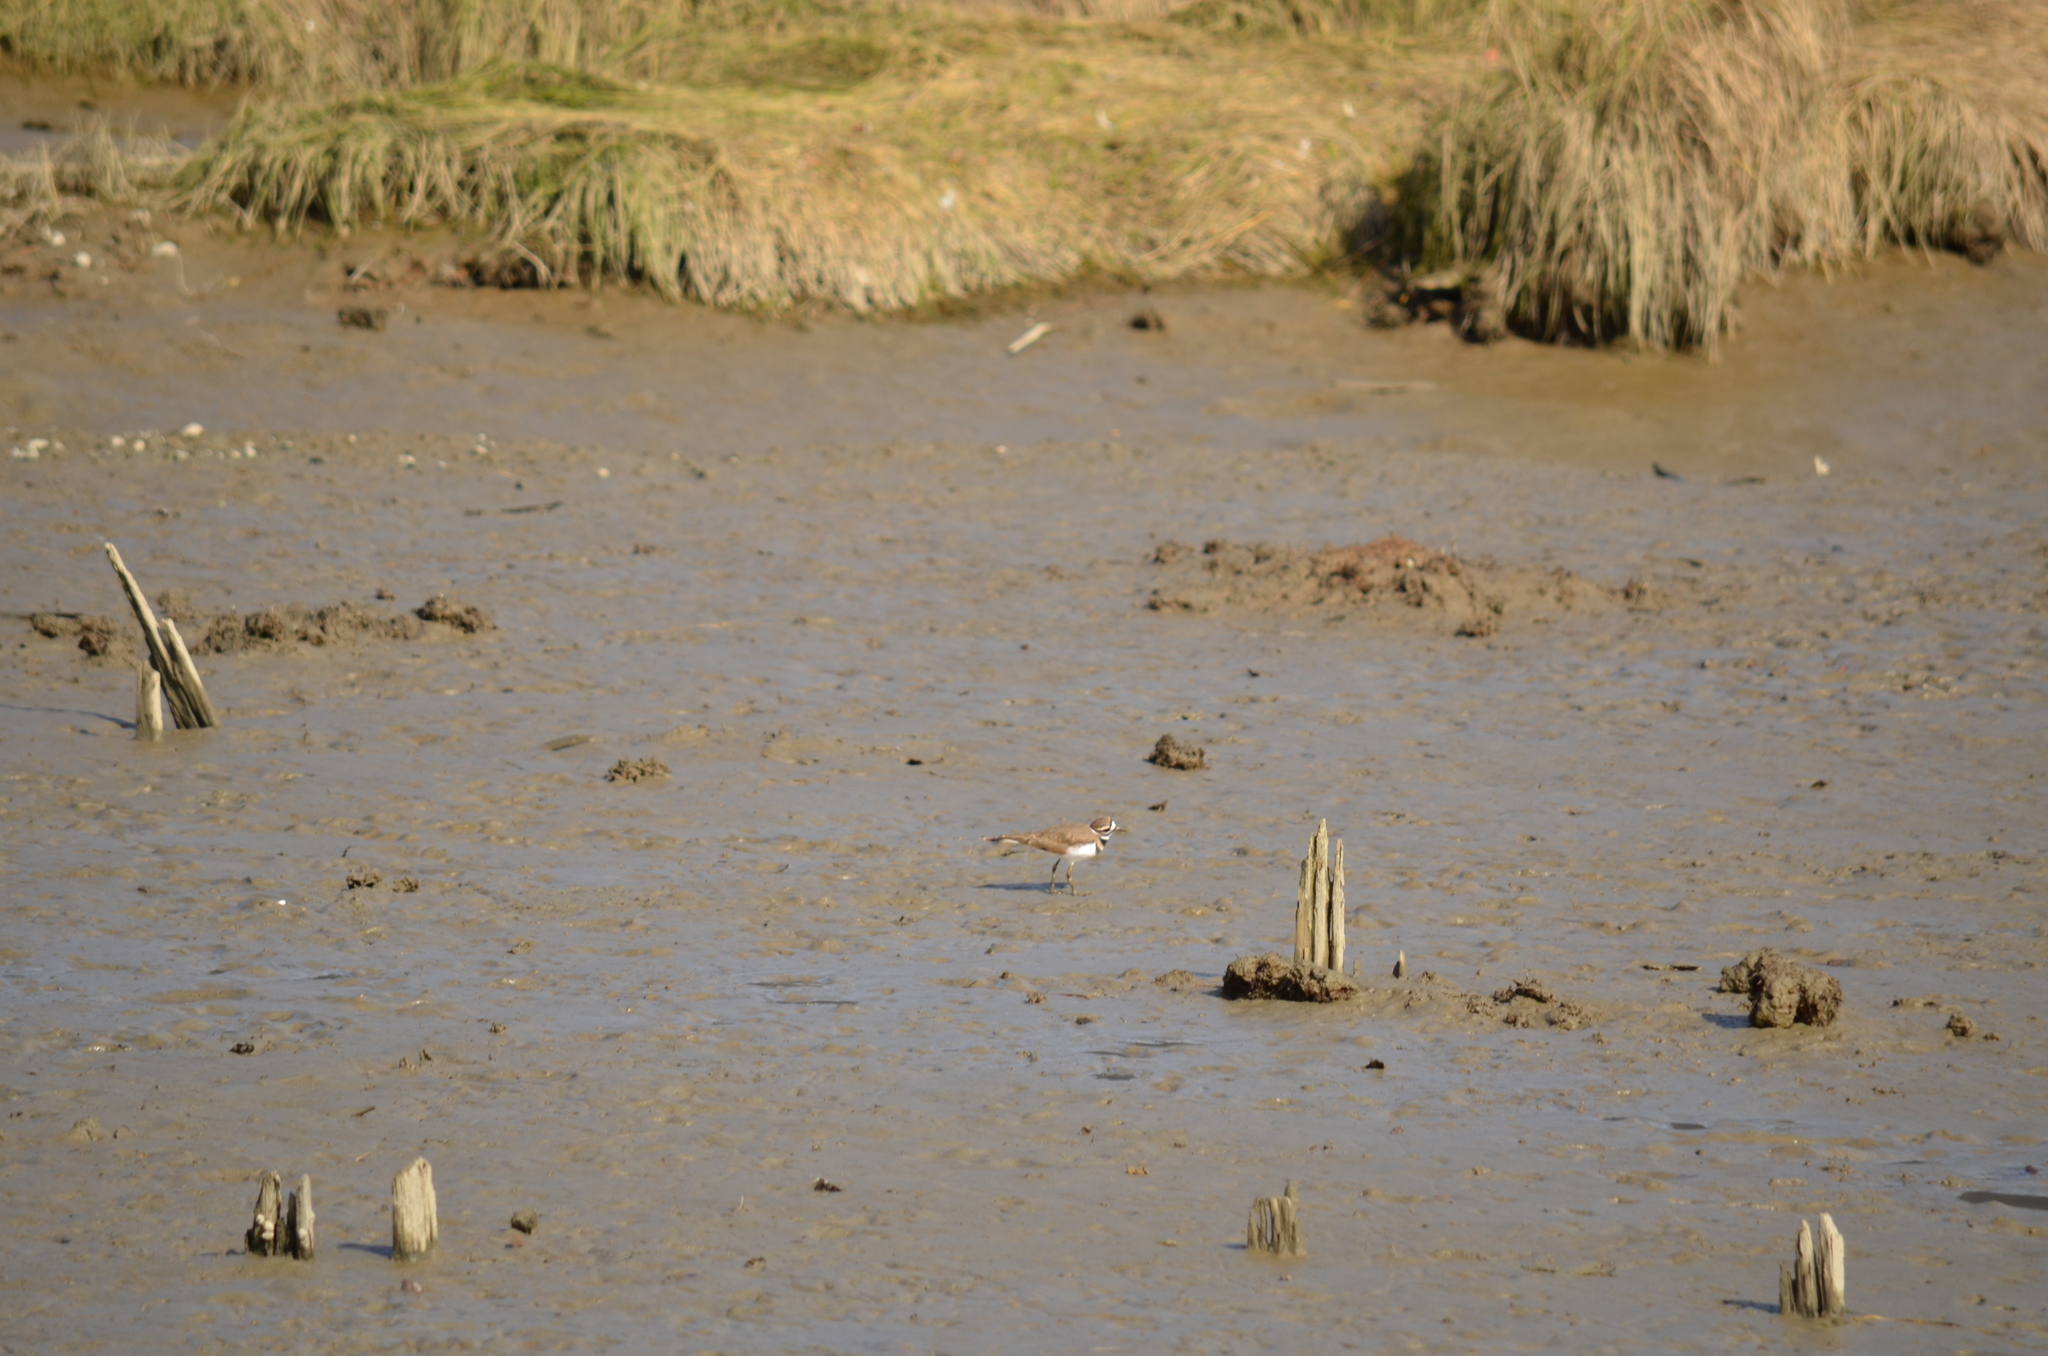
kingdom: Animalia
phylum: Chordata
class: Aves
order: Charadriiformes
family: Charadriidae
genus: Charadrius
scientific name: Charadrius vociferus
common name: Killdeer
